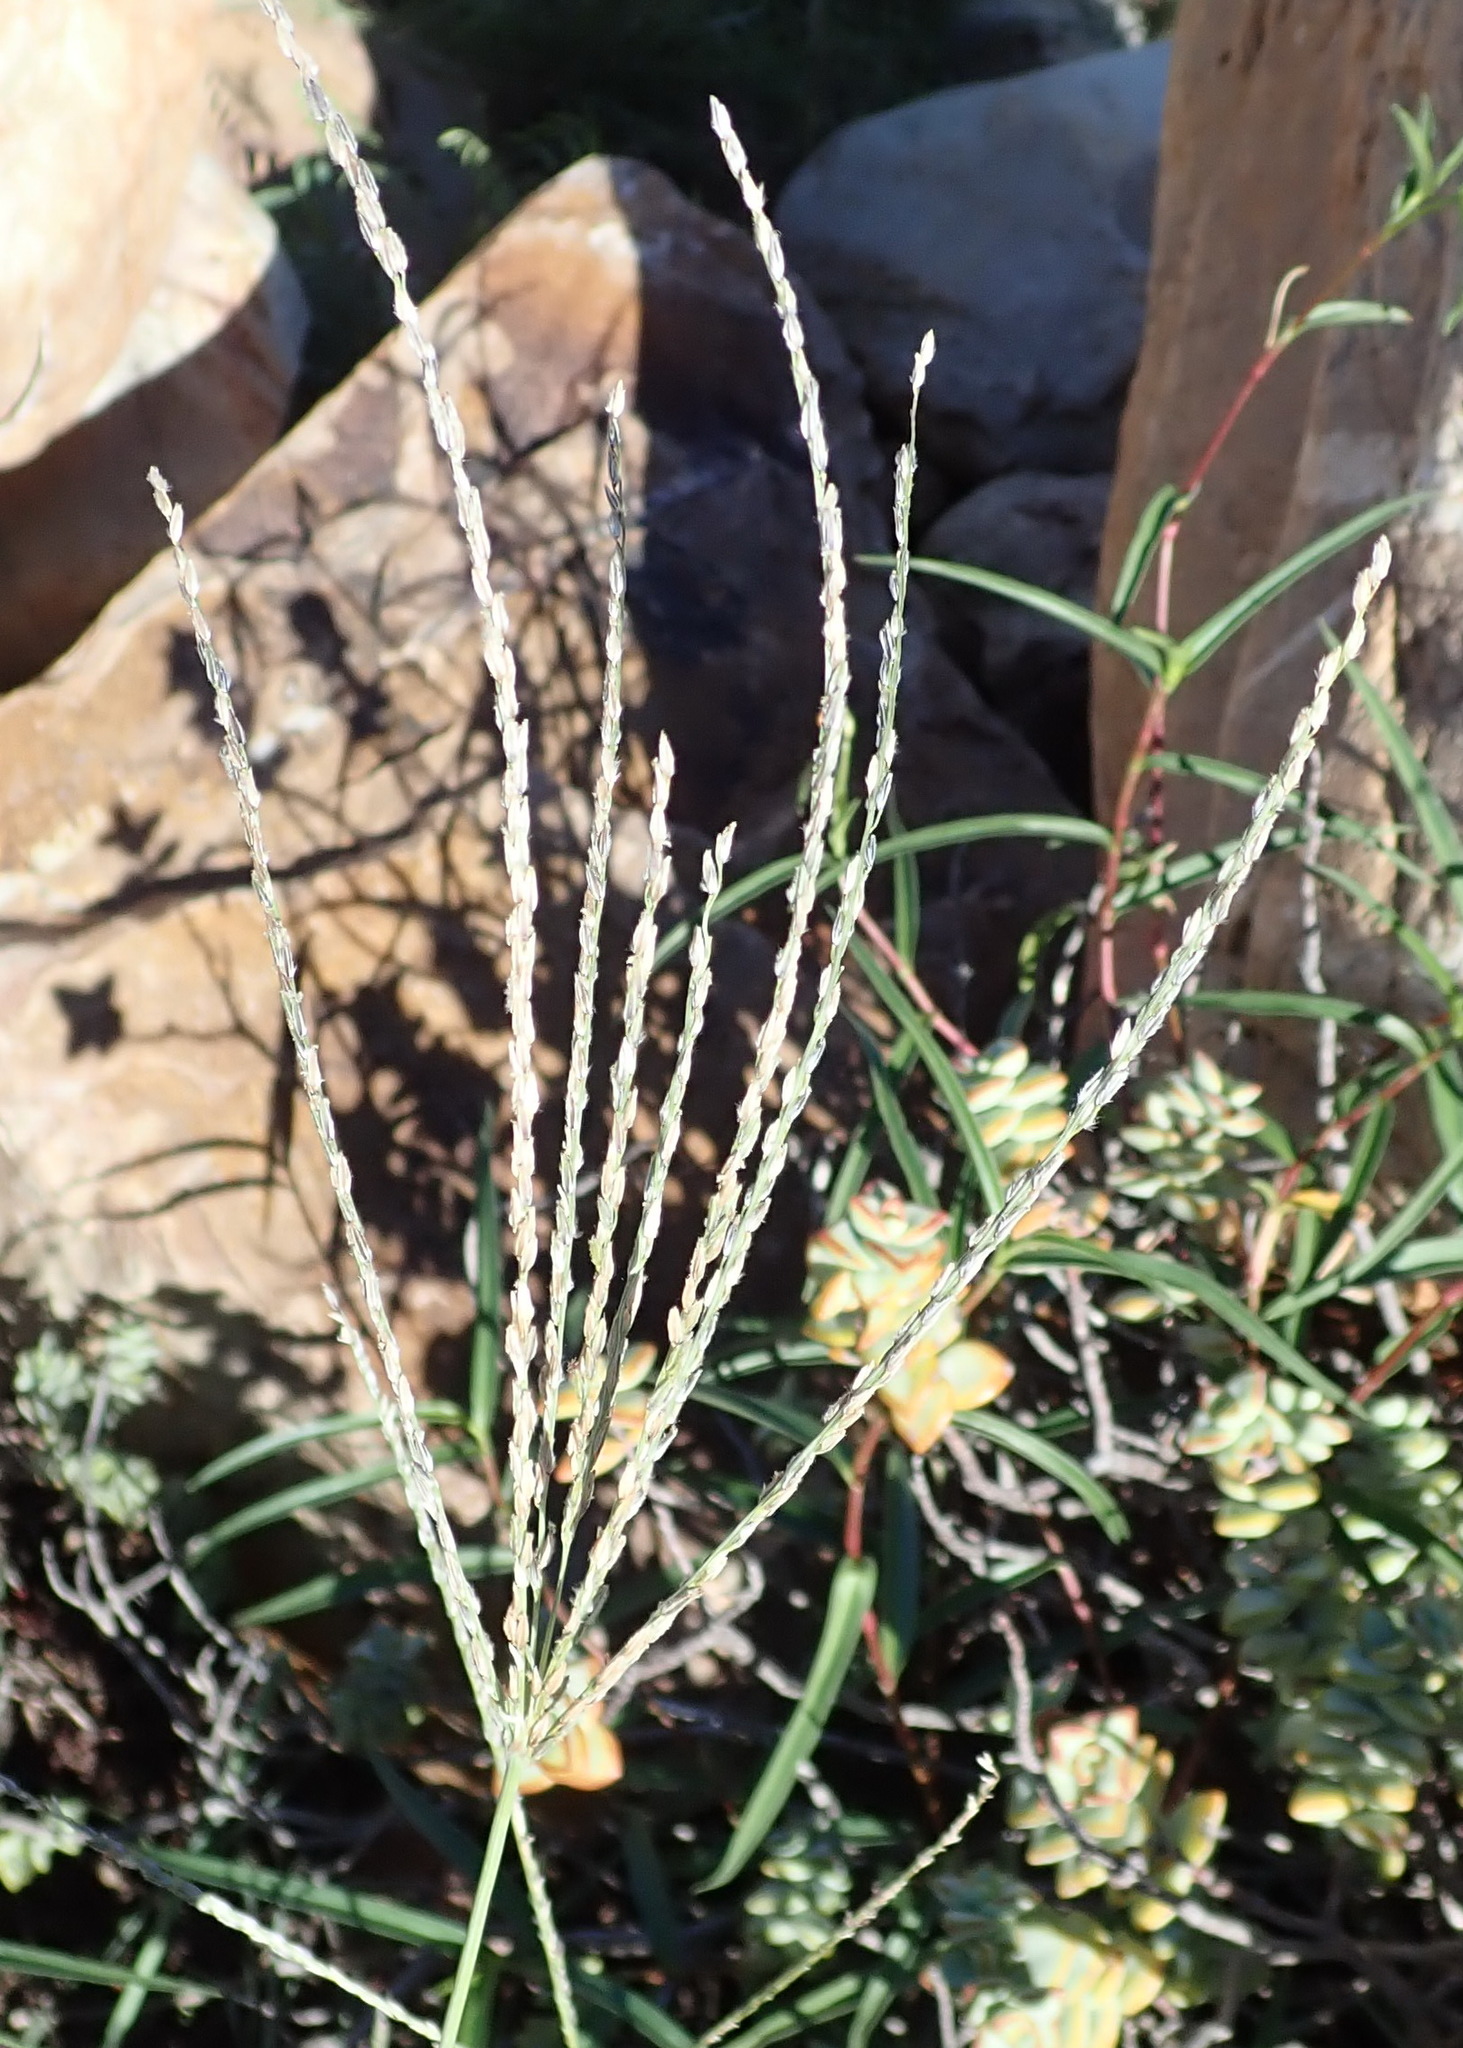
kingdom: Plantae
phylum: Tracheophyta
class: Liliopsida
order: Poales
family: Poaceae
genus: Digitaria
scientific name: Digitaria eriantha
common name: Digitgrass
